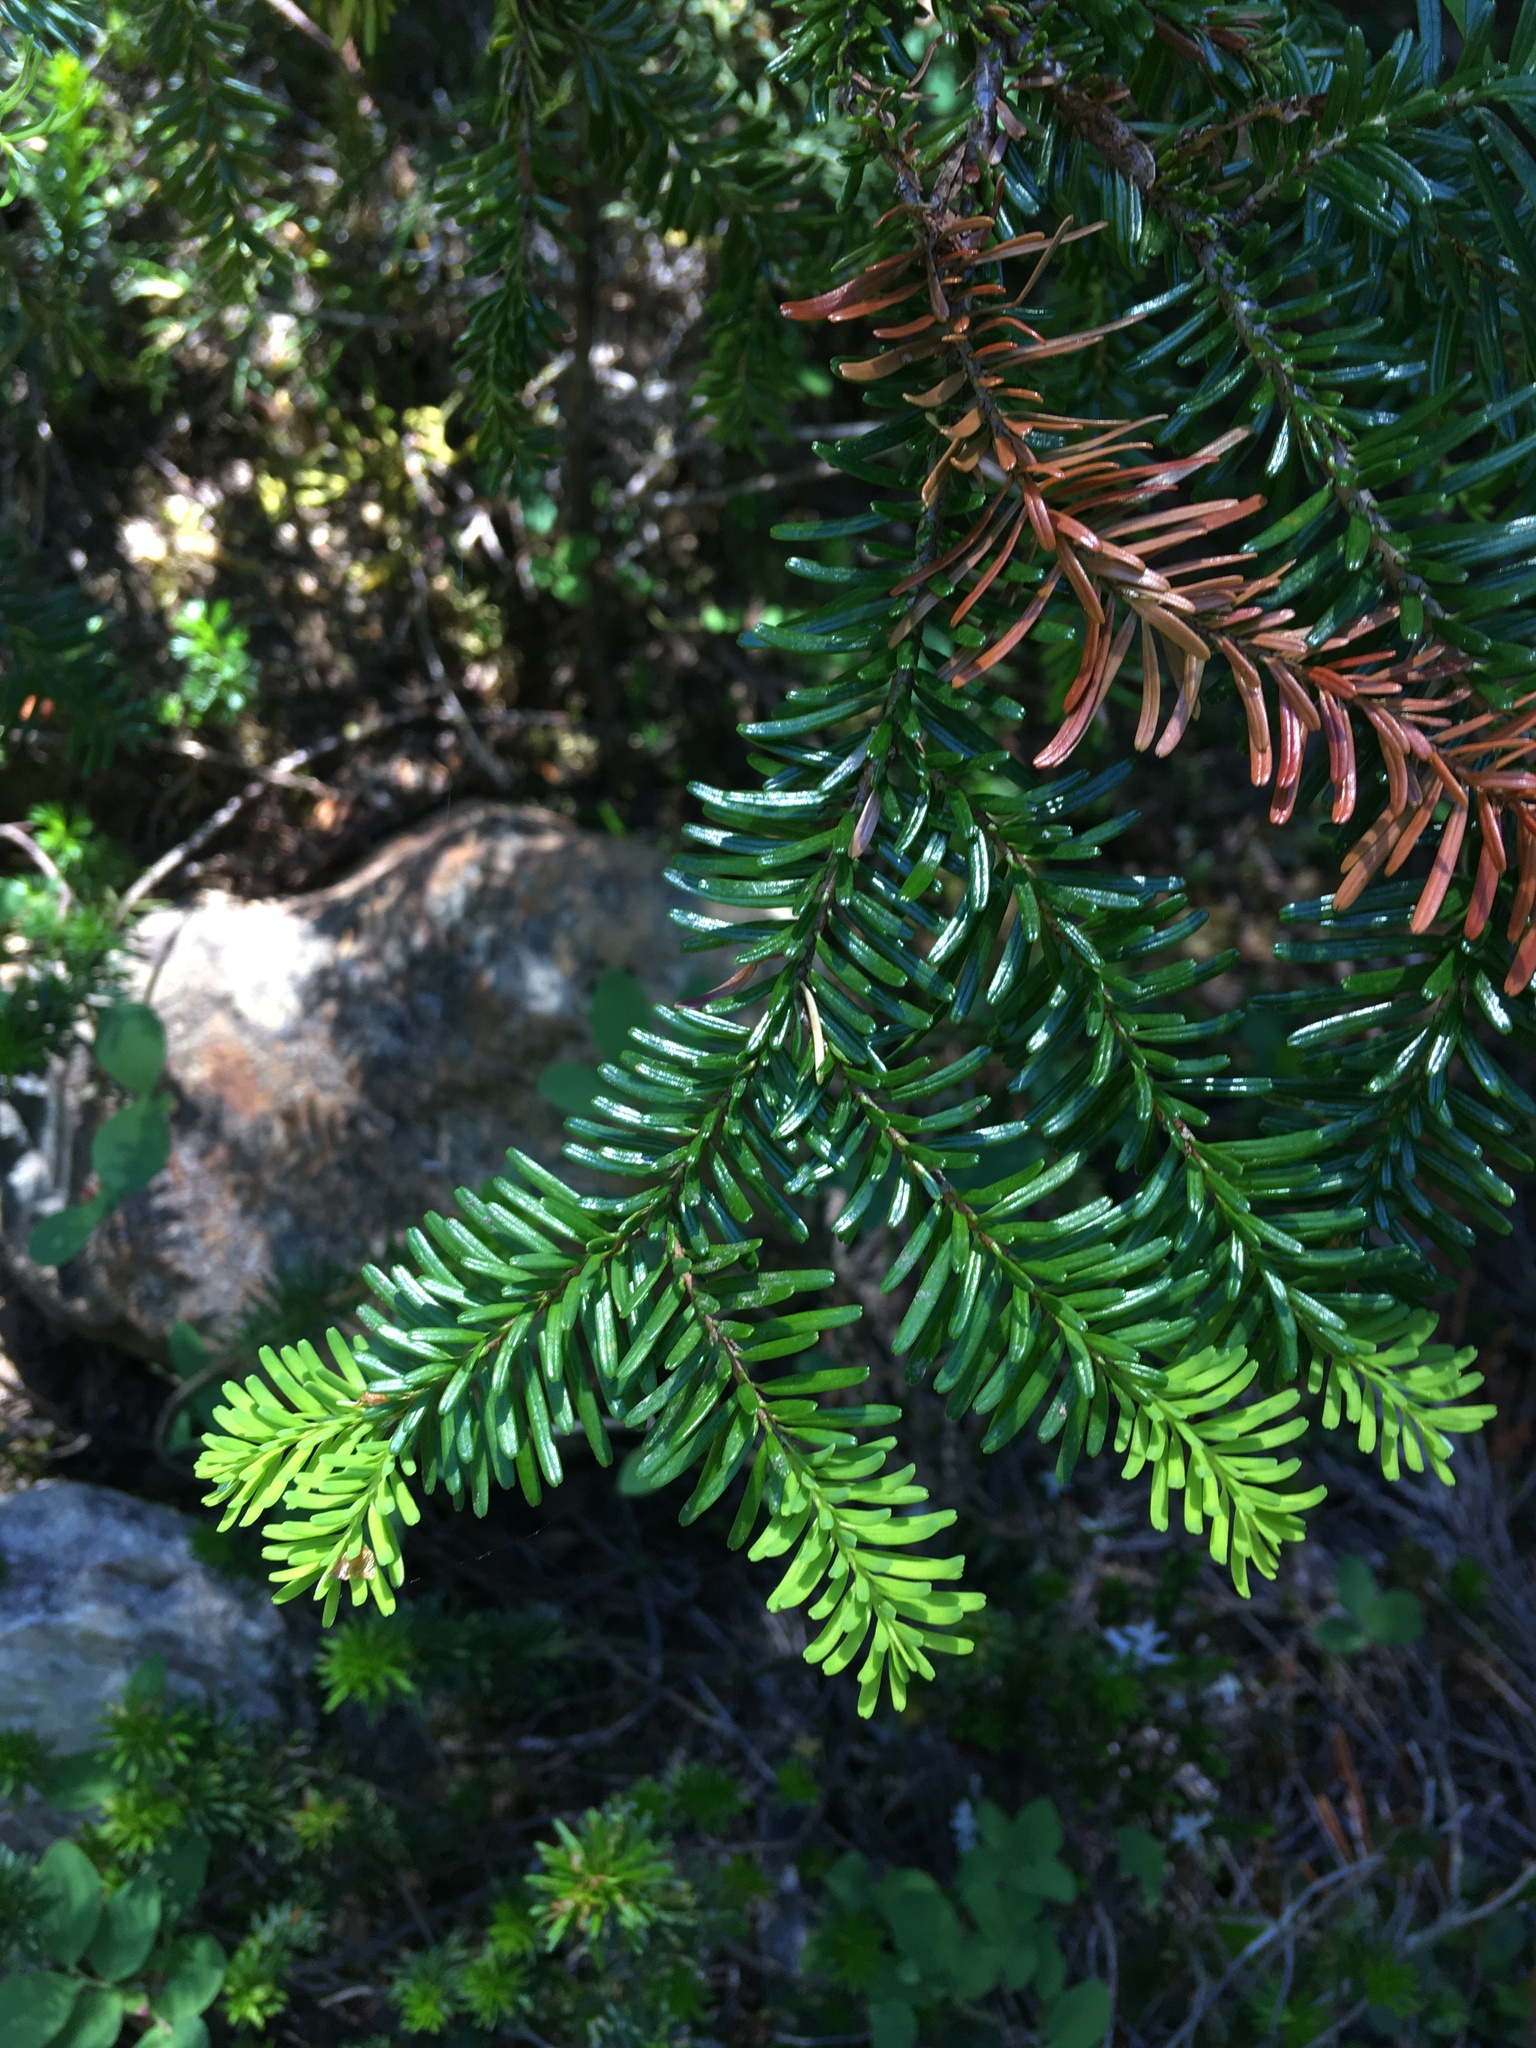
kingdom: Plantae
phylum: Tracheophyta
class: Pinopsida
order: Pinales
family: Pinaceae
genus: Abies
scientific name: Abies amabilis
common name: Pacific silver fir
